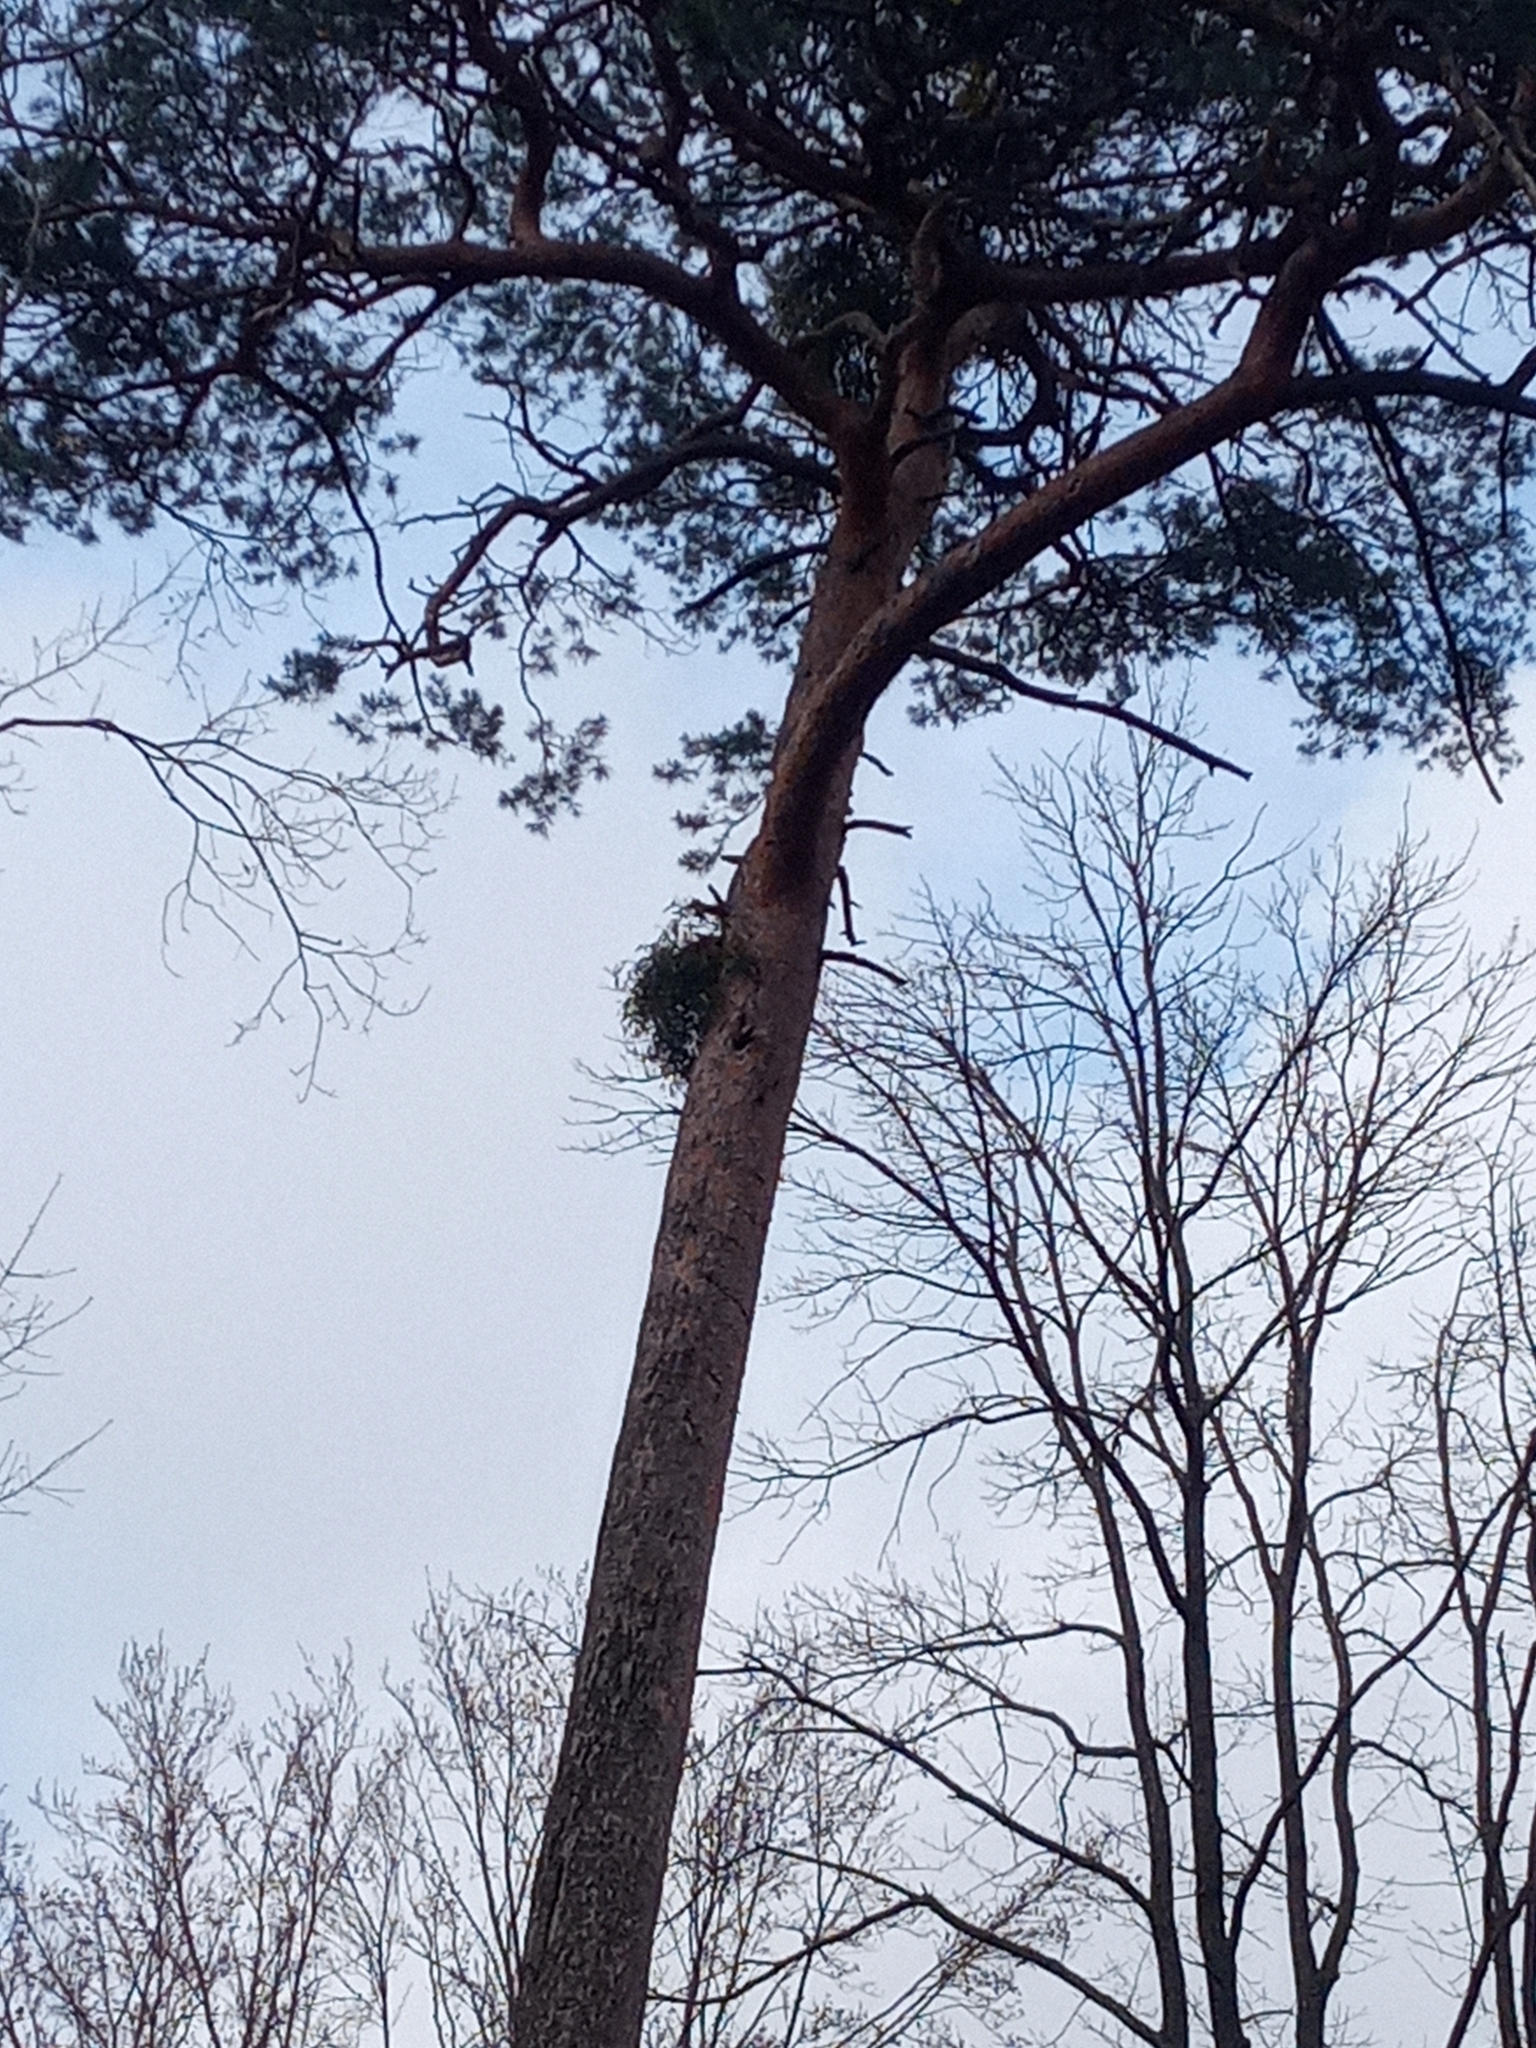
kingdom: Plantae
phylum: Tracheophyta
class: Magnoliopsida
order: Santalales
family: Viscaceae
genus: Viscum
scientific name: Viscum laxum
